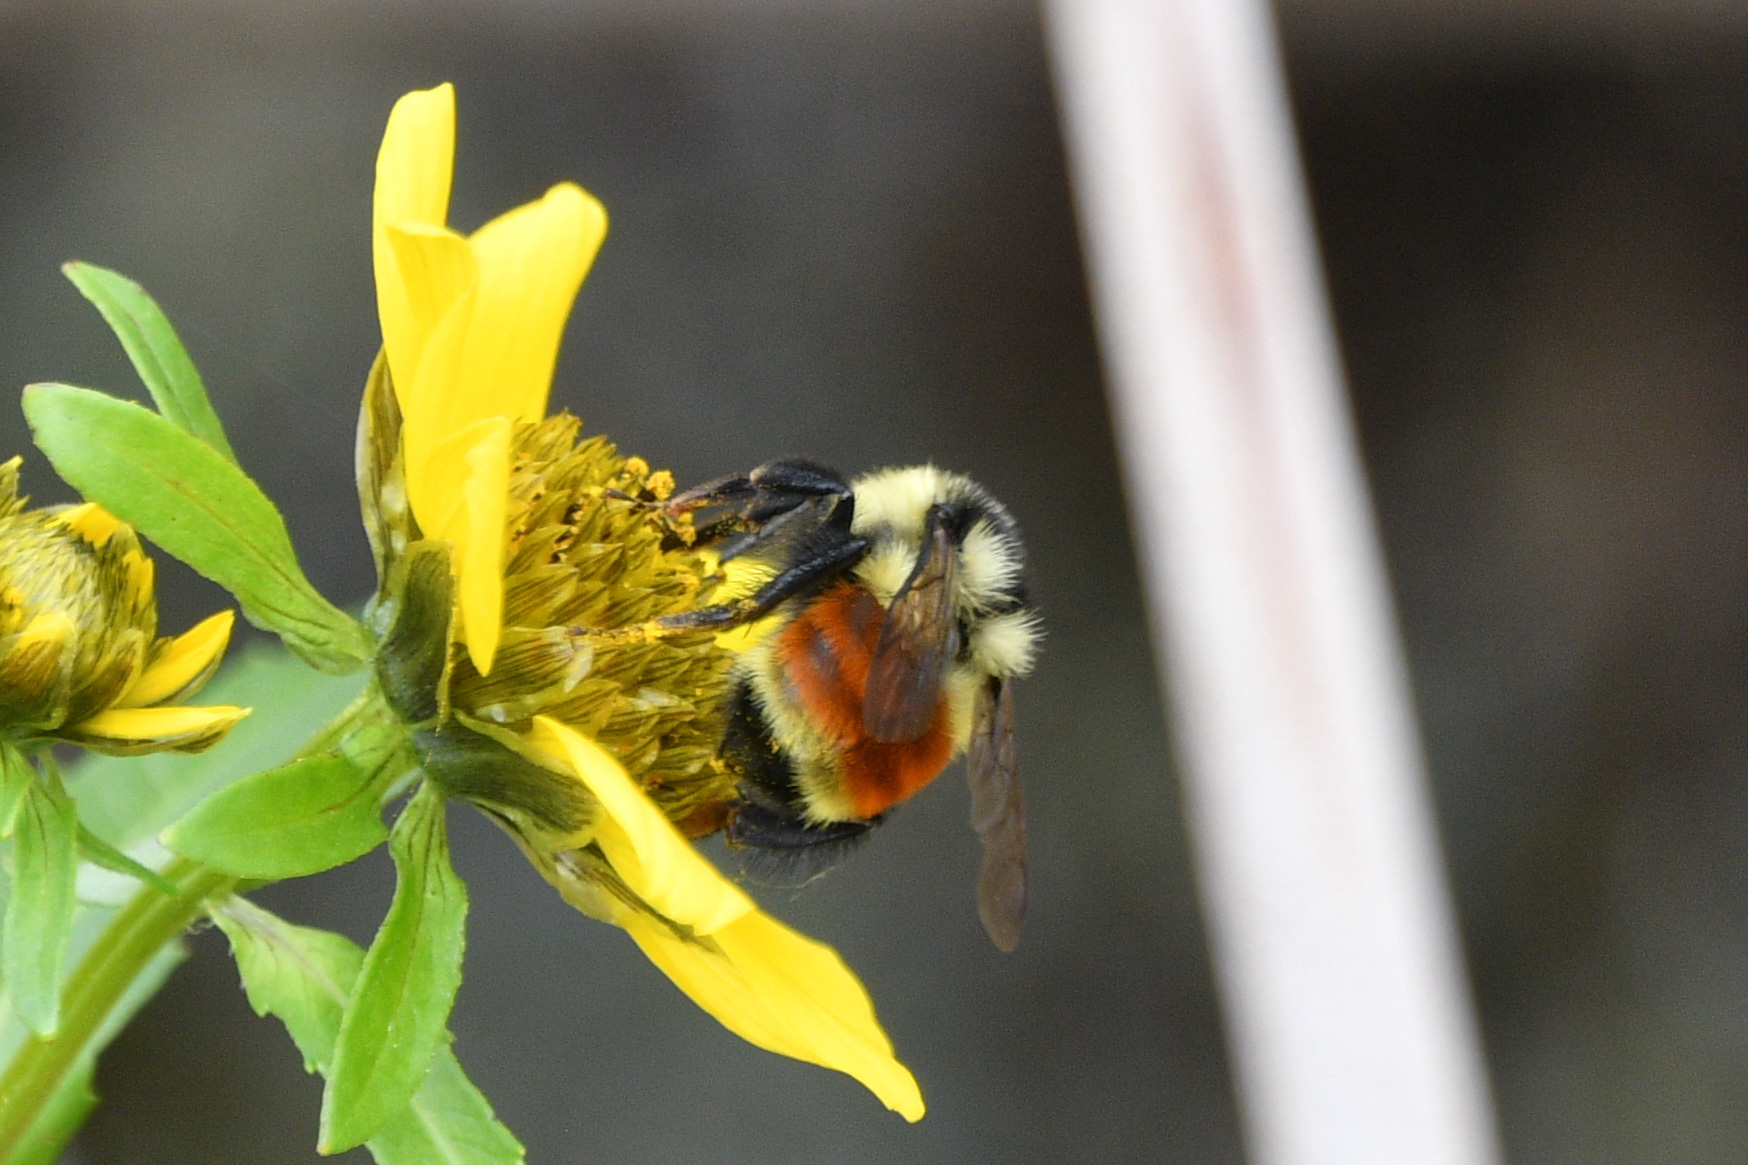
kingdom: Animalia
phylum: Arthropoda
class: Insecta
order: Hymenoptera
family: Apidae
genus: Bombus
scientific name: Bombus ternarius
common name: Tri-colored bumble bee
